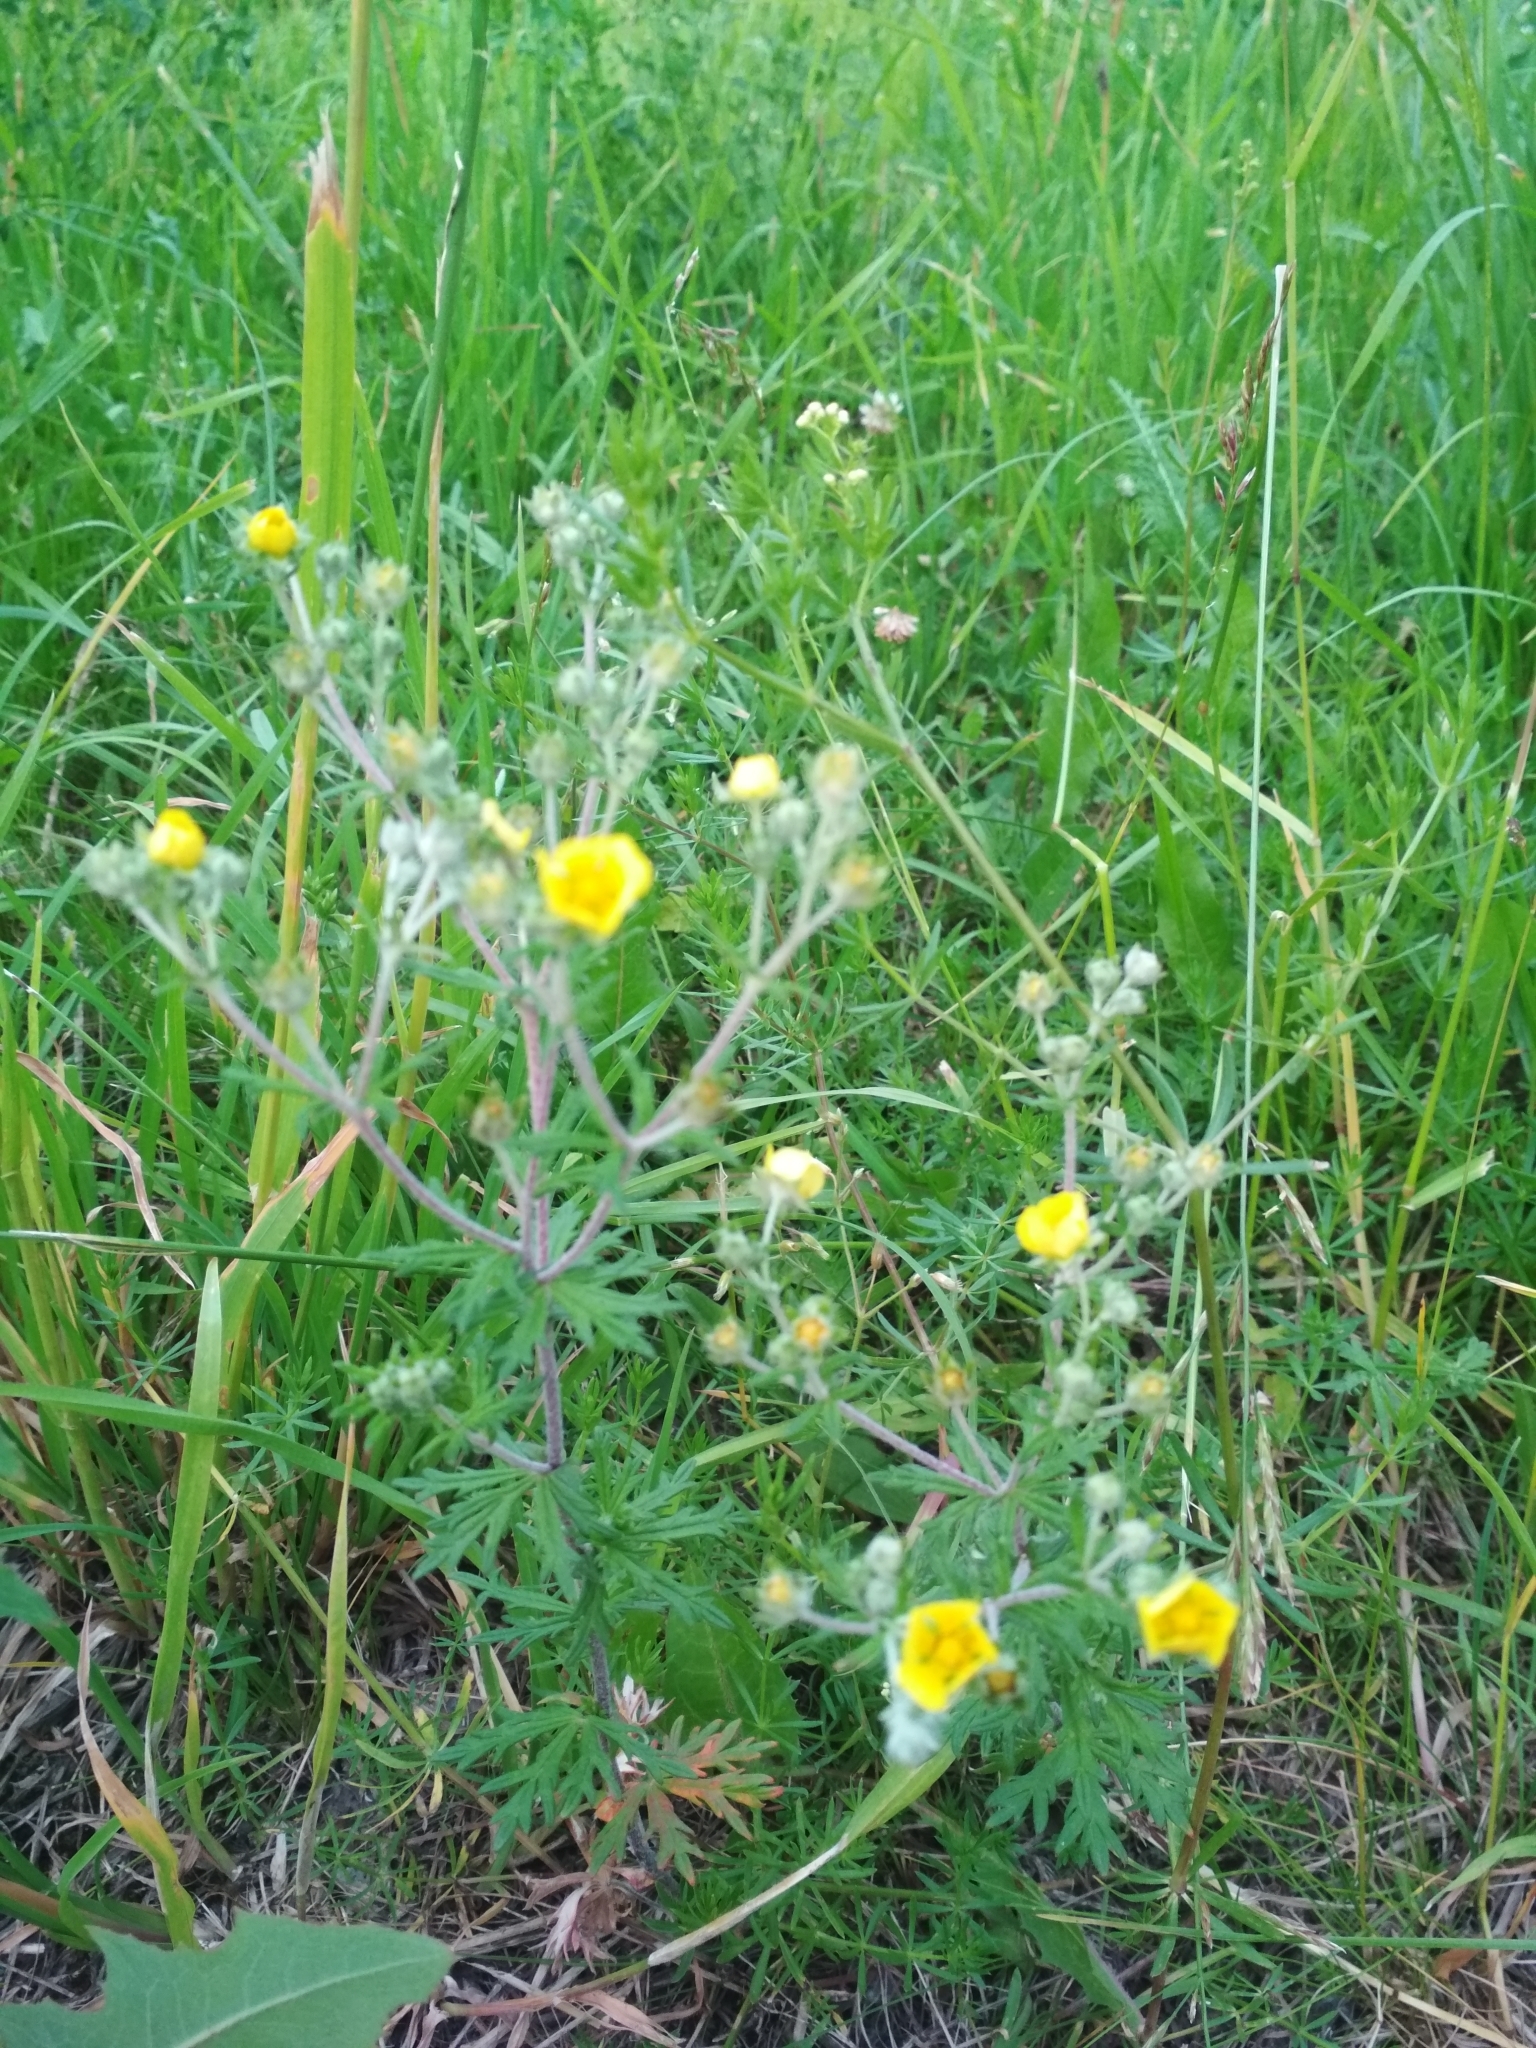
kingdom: Plantae
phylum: Tracheophyta
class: Magnoliopsida
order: Rosales
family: Rosaceae
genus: Potentilla
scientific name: Potentilla argentea
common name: Hoary cinquefoil
